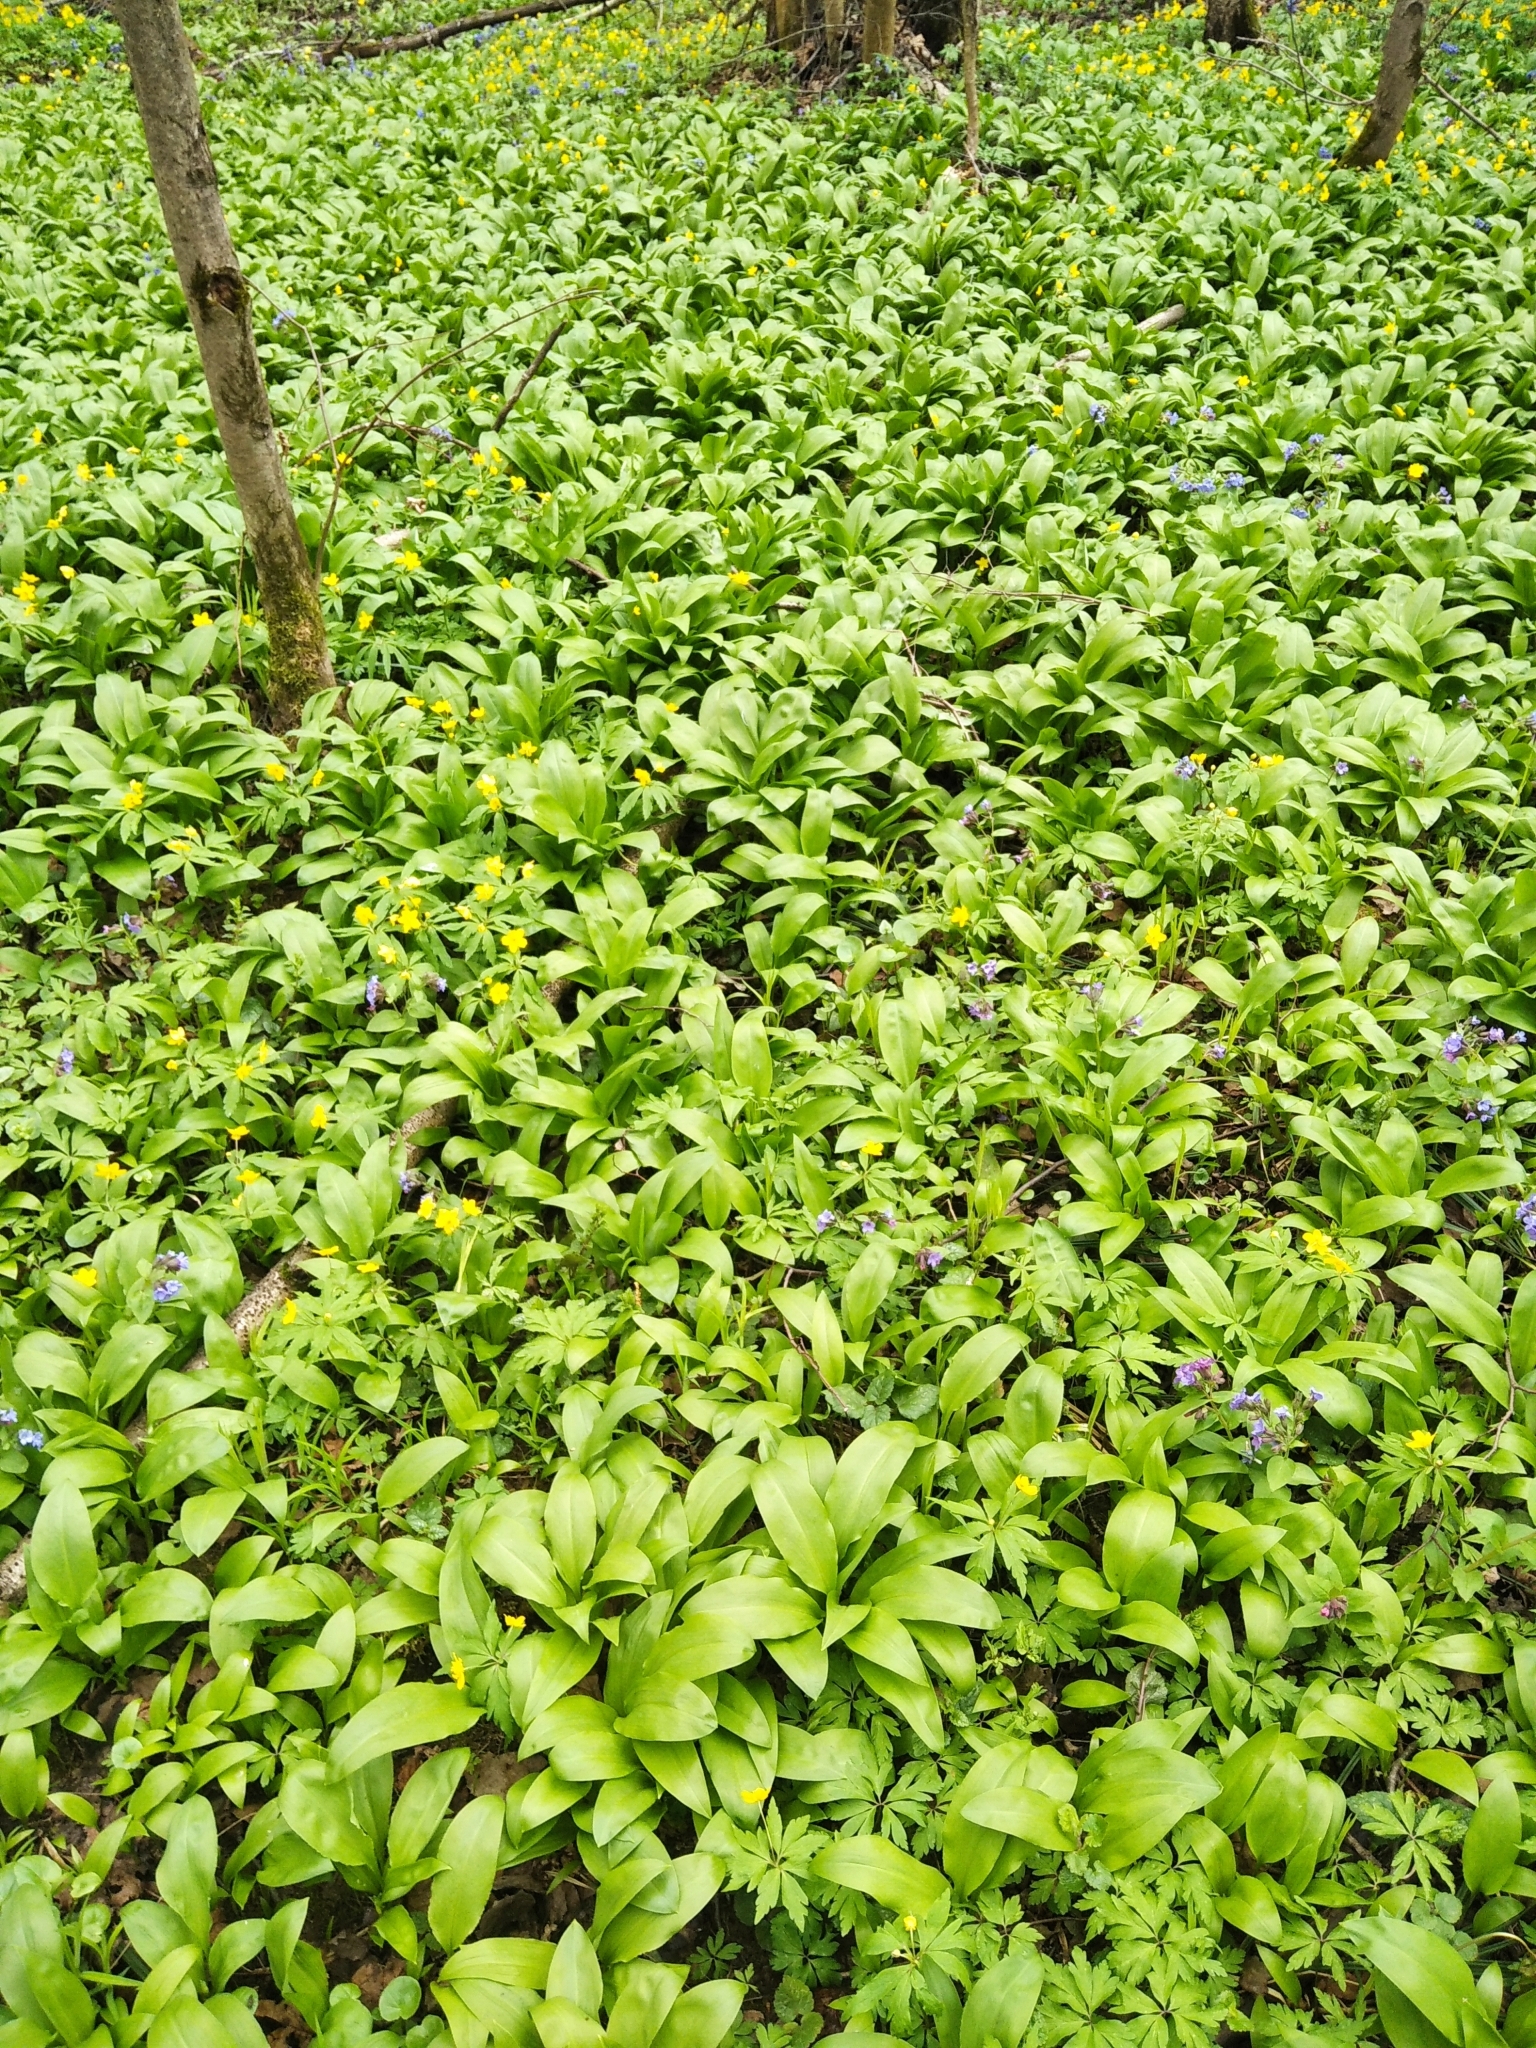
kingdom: Plantae
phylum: Tracheophyta
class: Liliopsida
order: Asparagales
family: Amaryllidaceae
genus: Allium
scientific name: Allium ursinum
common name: Ramsons
